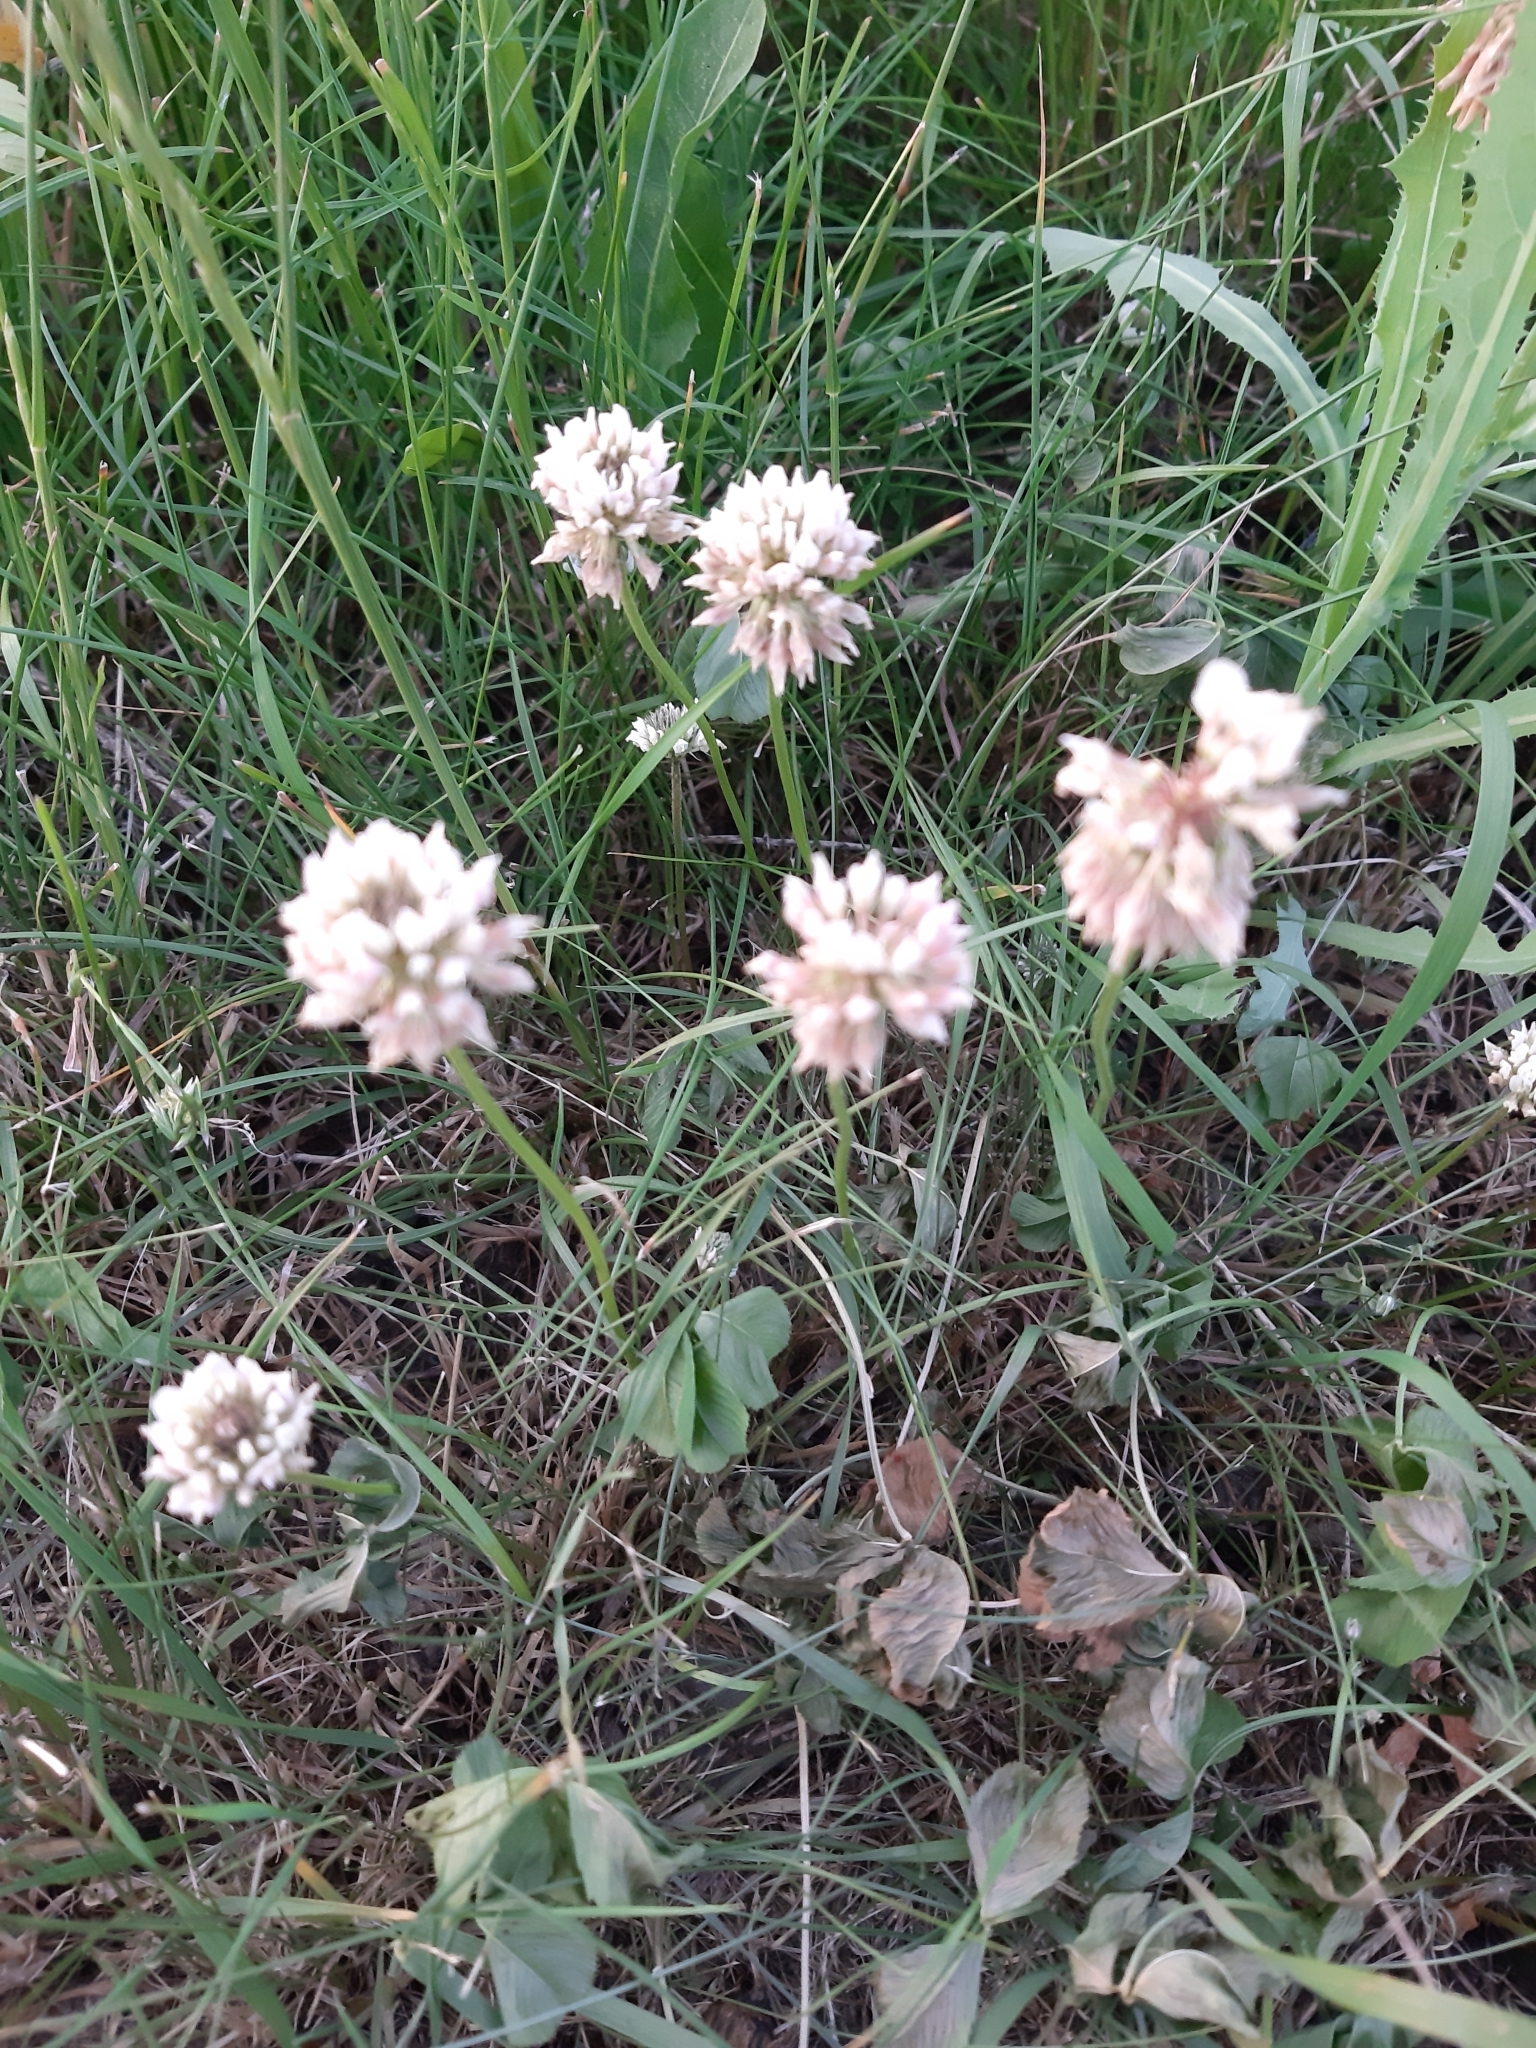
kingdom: Plantae
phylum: Tracheophyta
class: Magnoliopsida
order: Fabales
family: Fabaceae
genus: Trifolium
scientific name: Trifolium repens
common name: White clover
